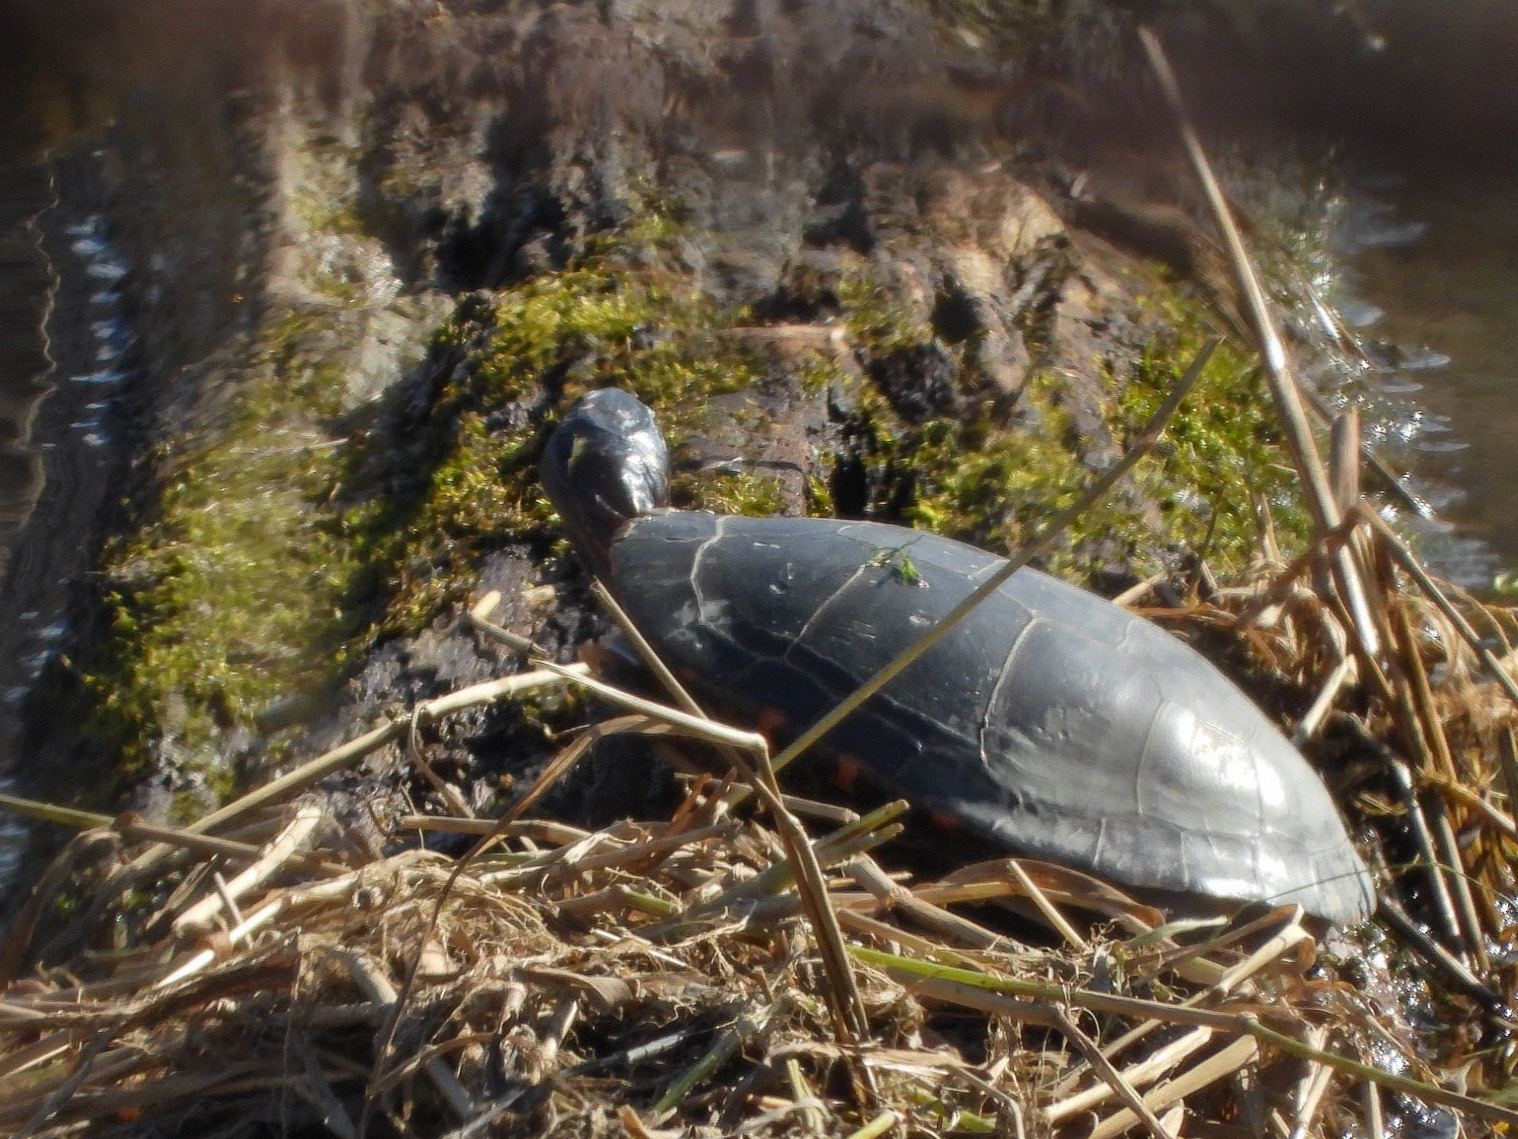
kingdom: Animalia
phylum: Chordata
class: Testudines
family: Emydidae
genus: Chrysemys
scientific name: Chrysemys picta
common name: Painted turtle
